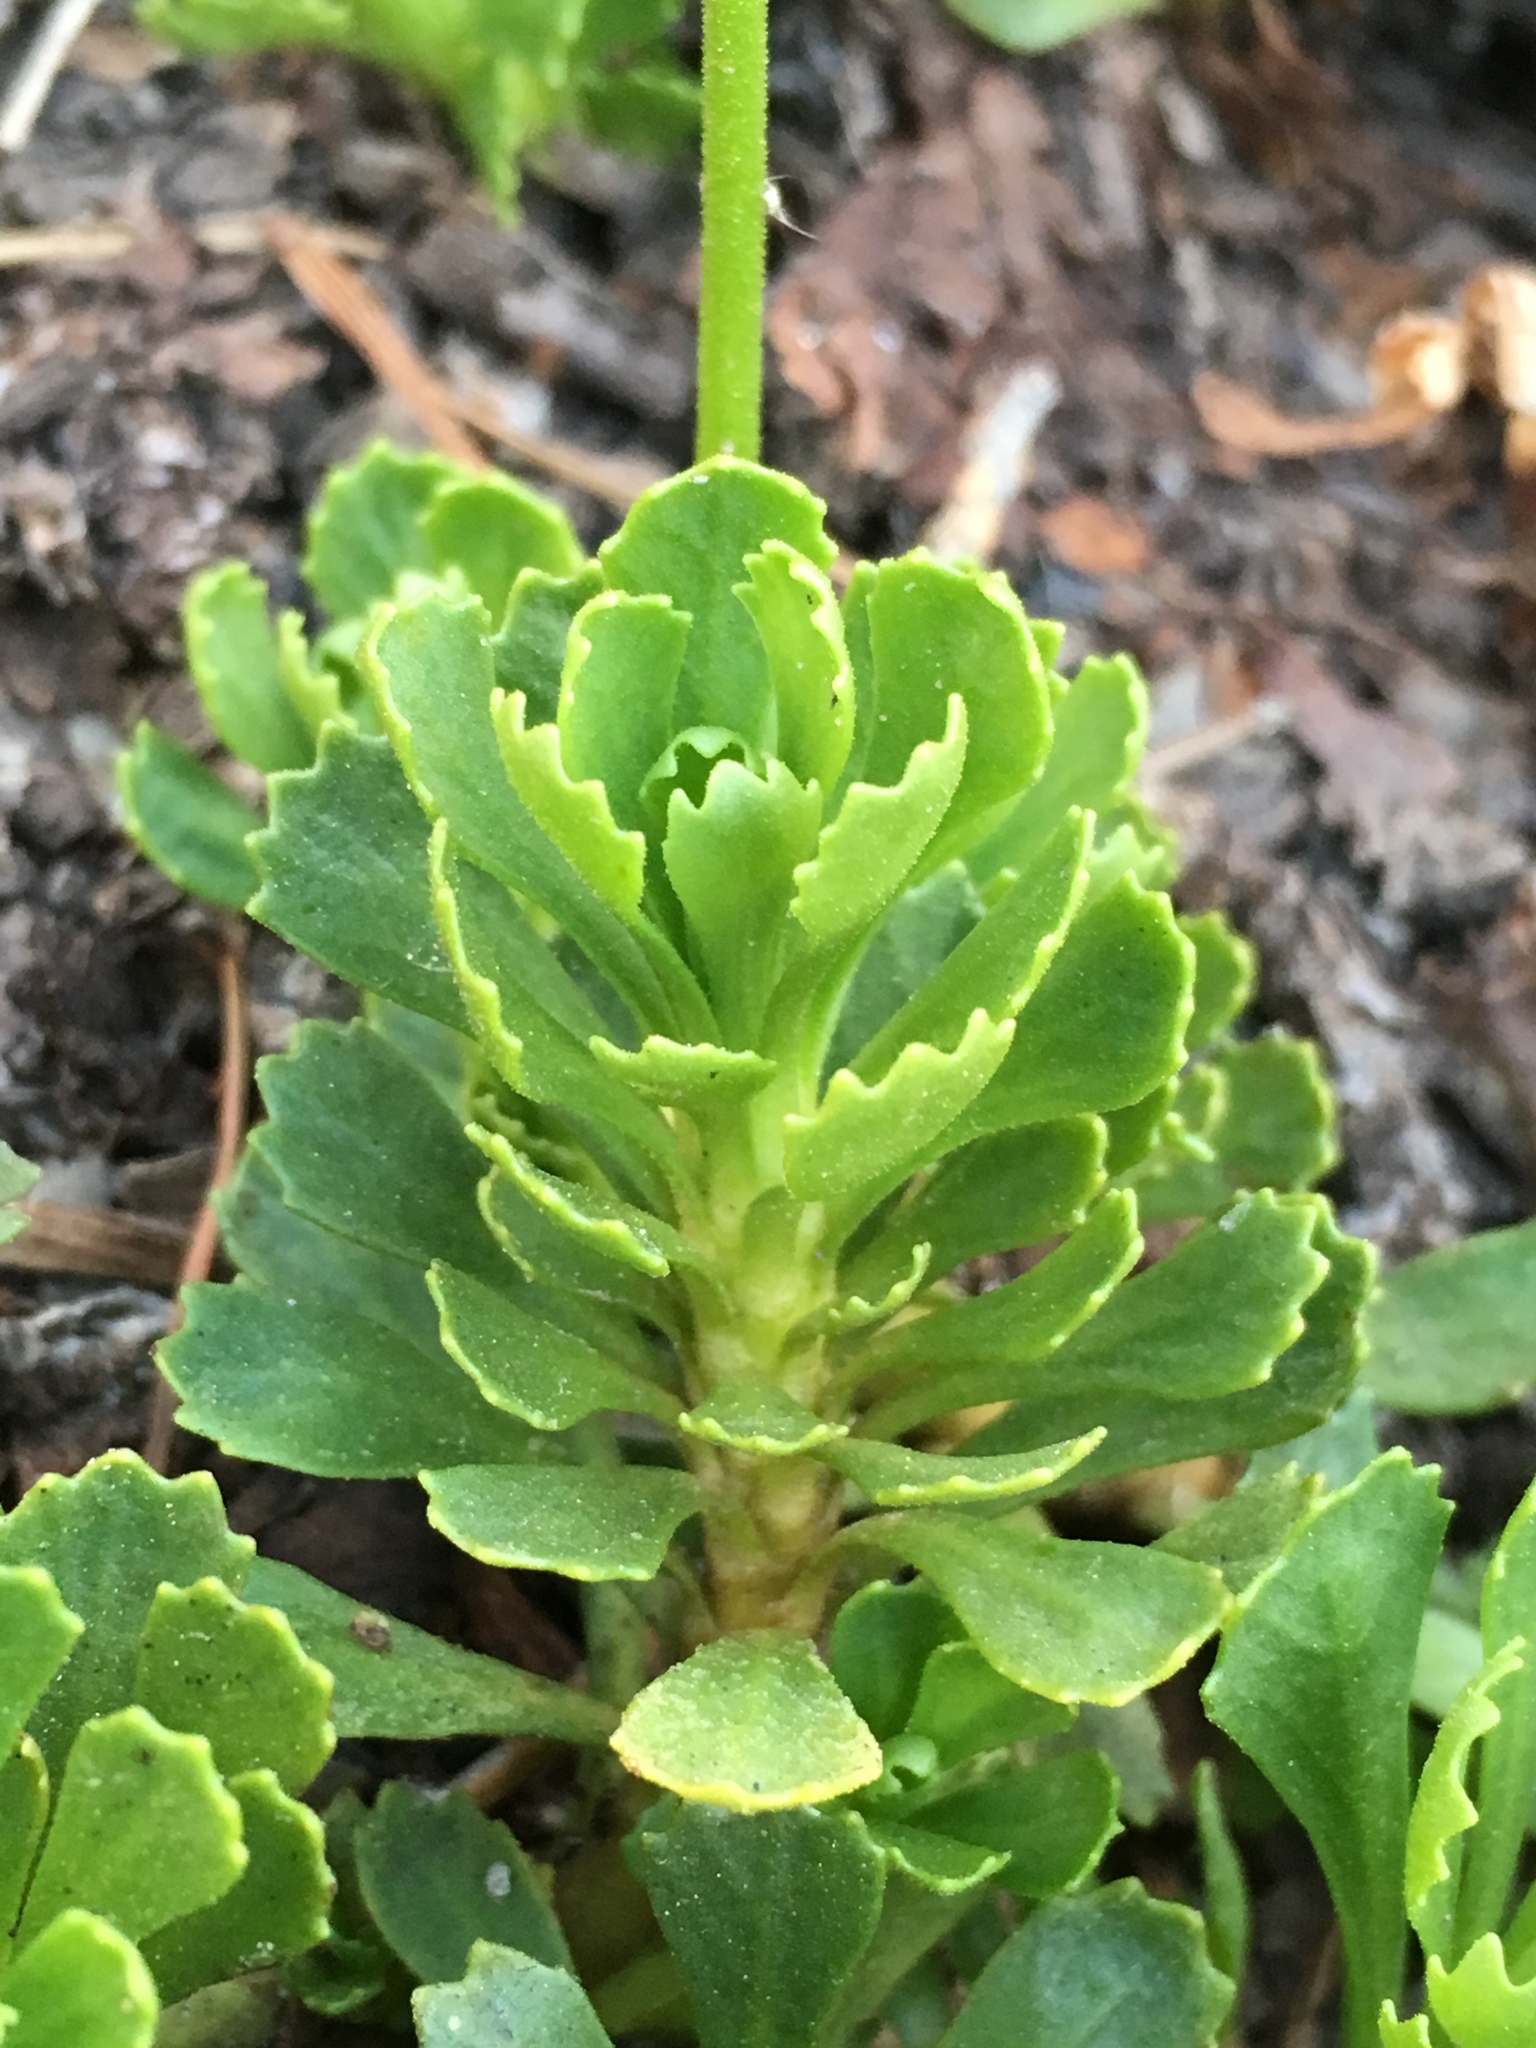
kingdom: Plantae
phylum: Tracheophyta
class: Magnoliopsida
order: Ericales
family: Primulaceae
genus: Primula
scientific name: Primula suffrutescens
